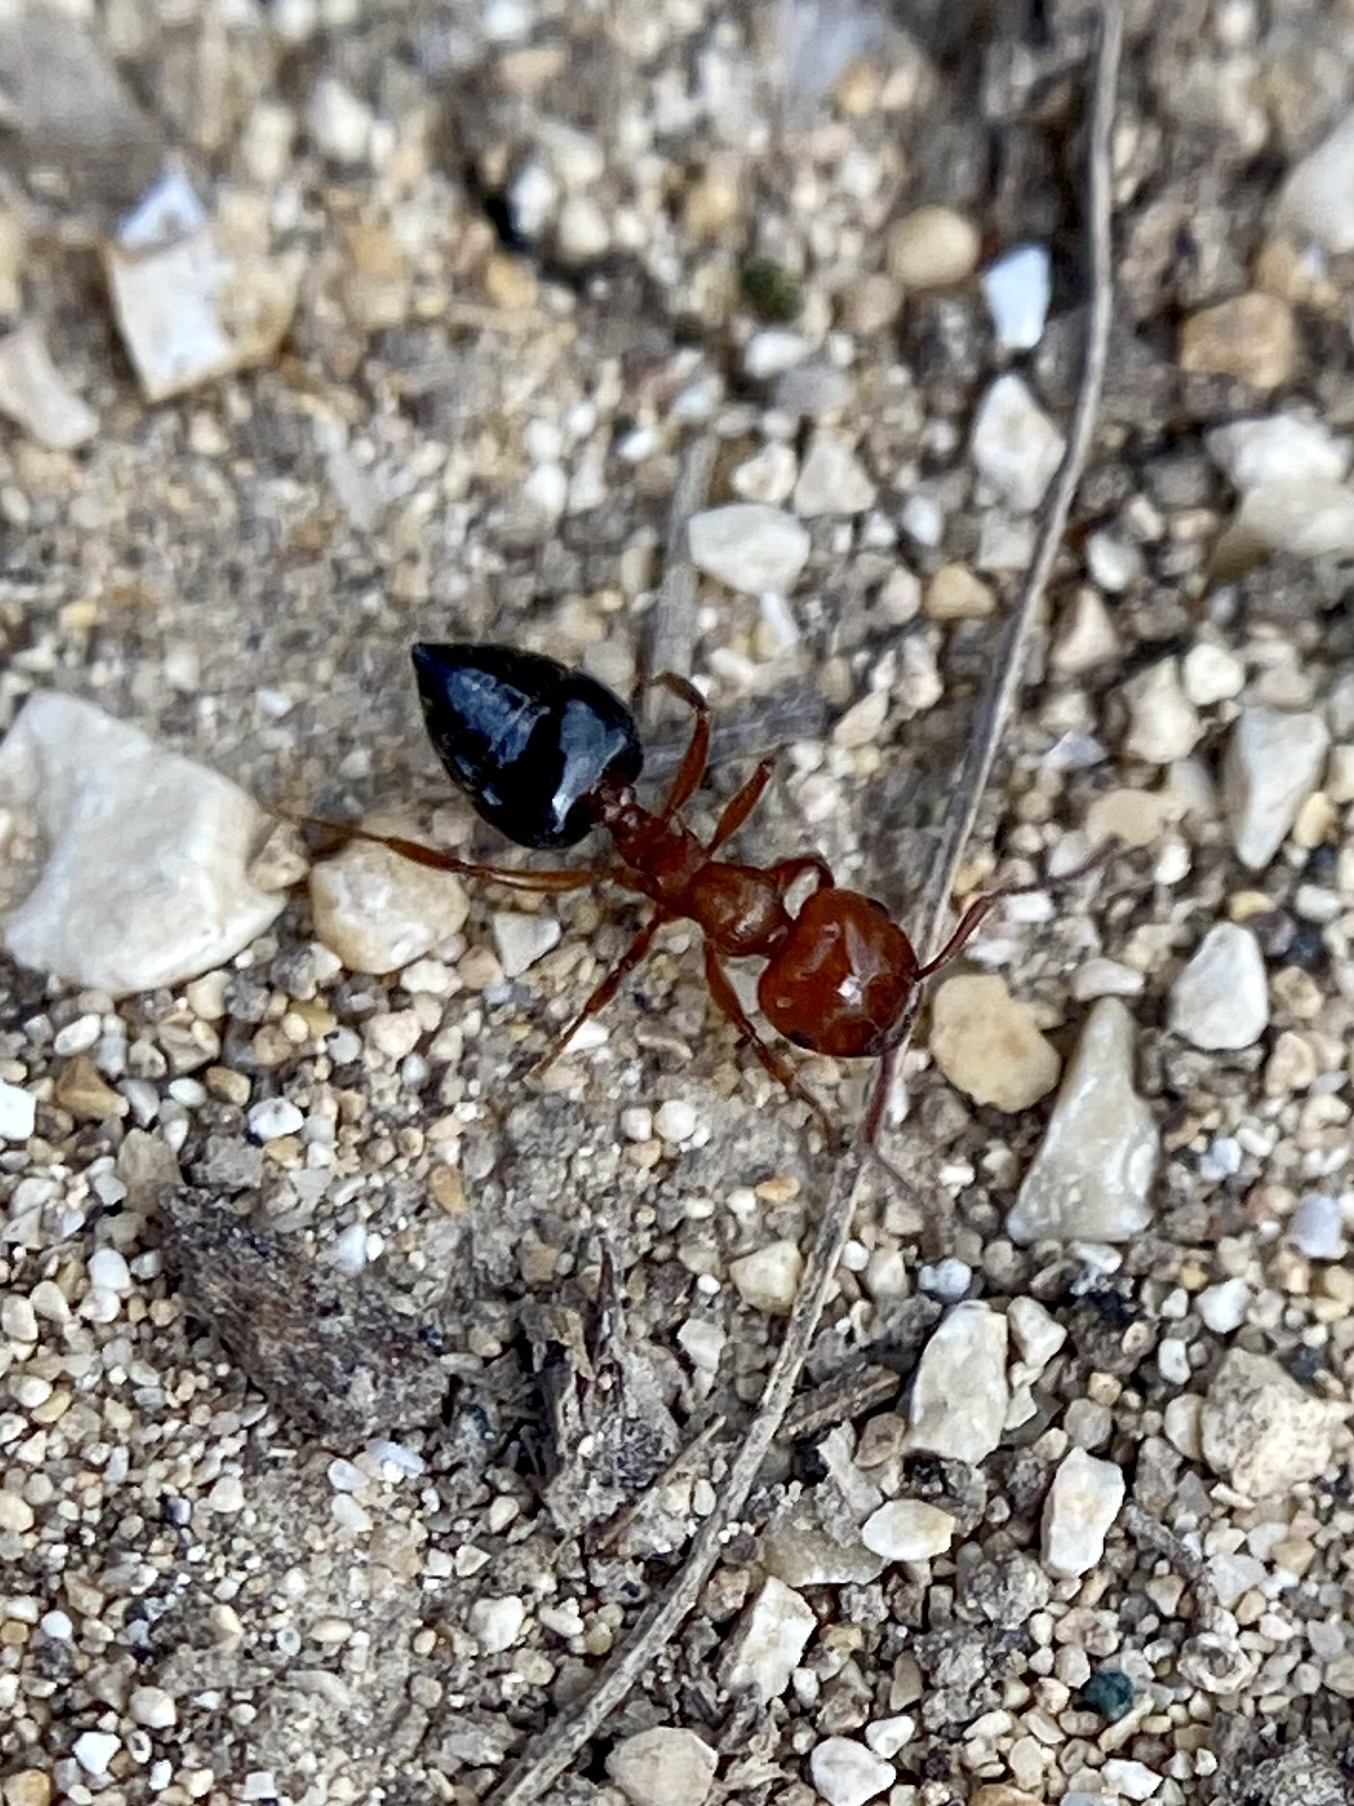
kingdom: Animalia
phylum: Arthropoda
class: Insecta
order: Hymenoptera
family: Formicidae
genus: Crematogaster
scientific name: Crematogaster laeviuscula
